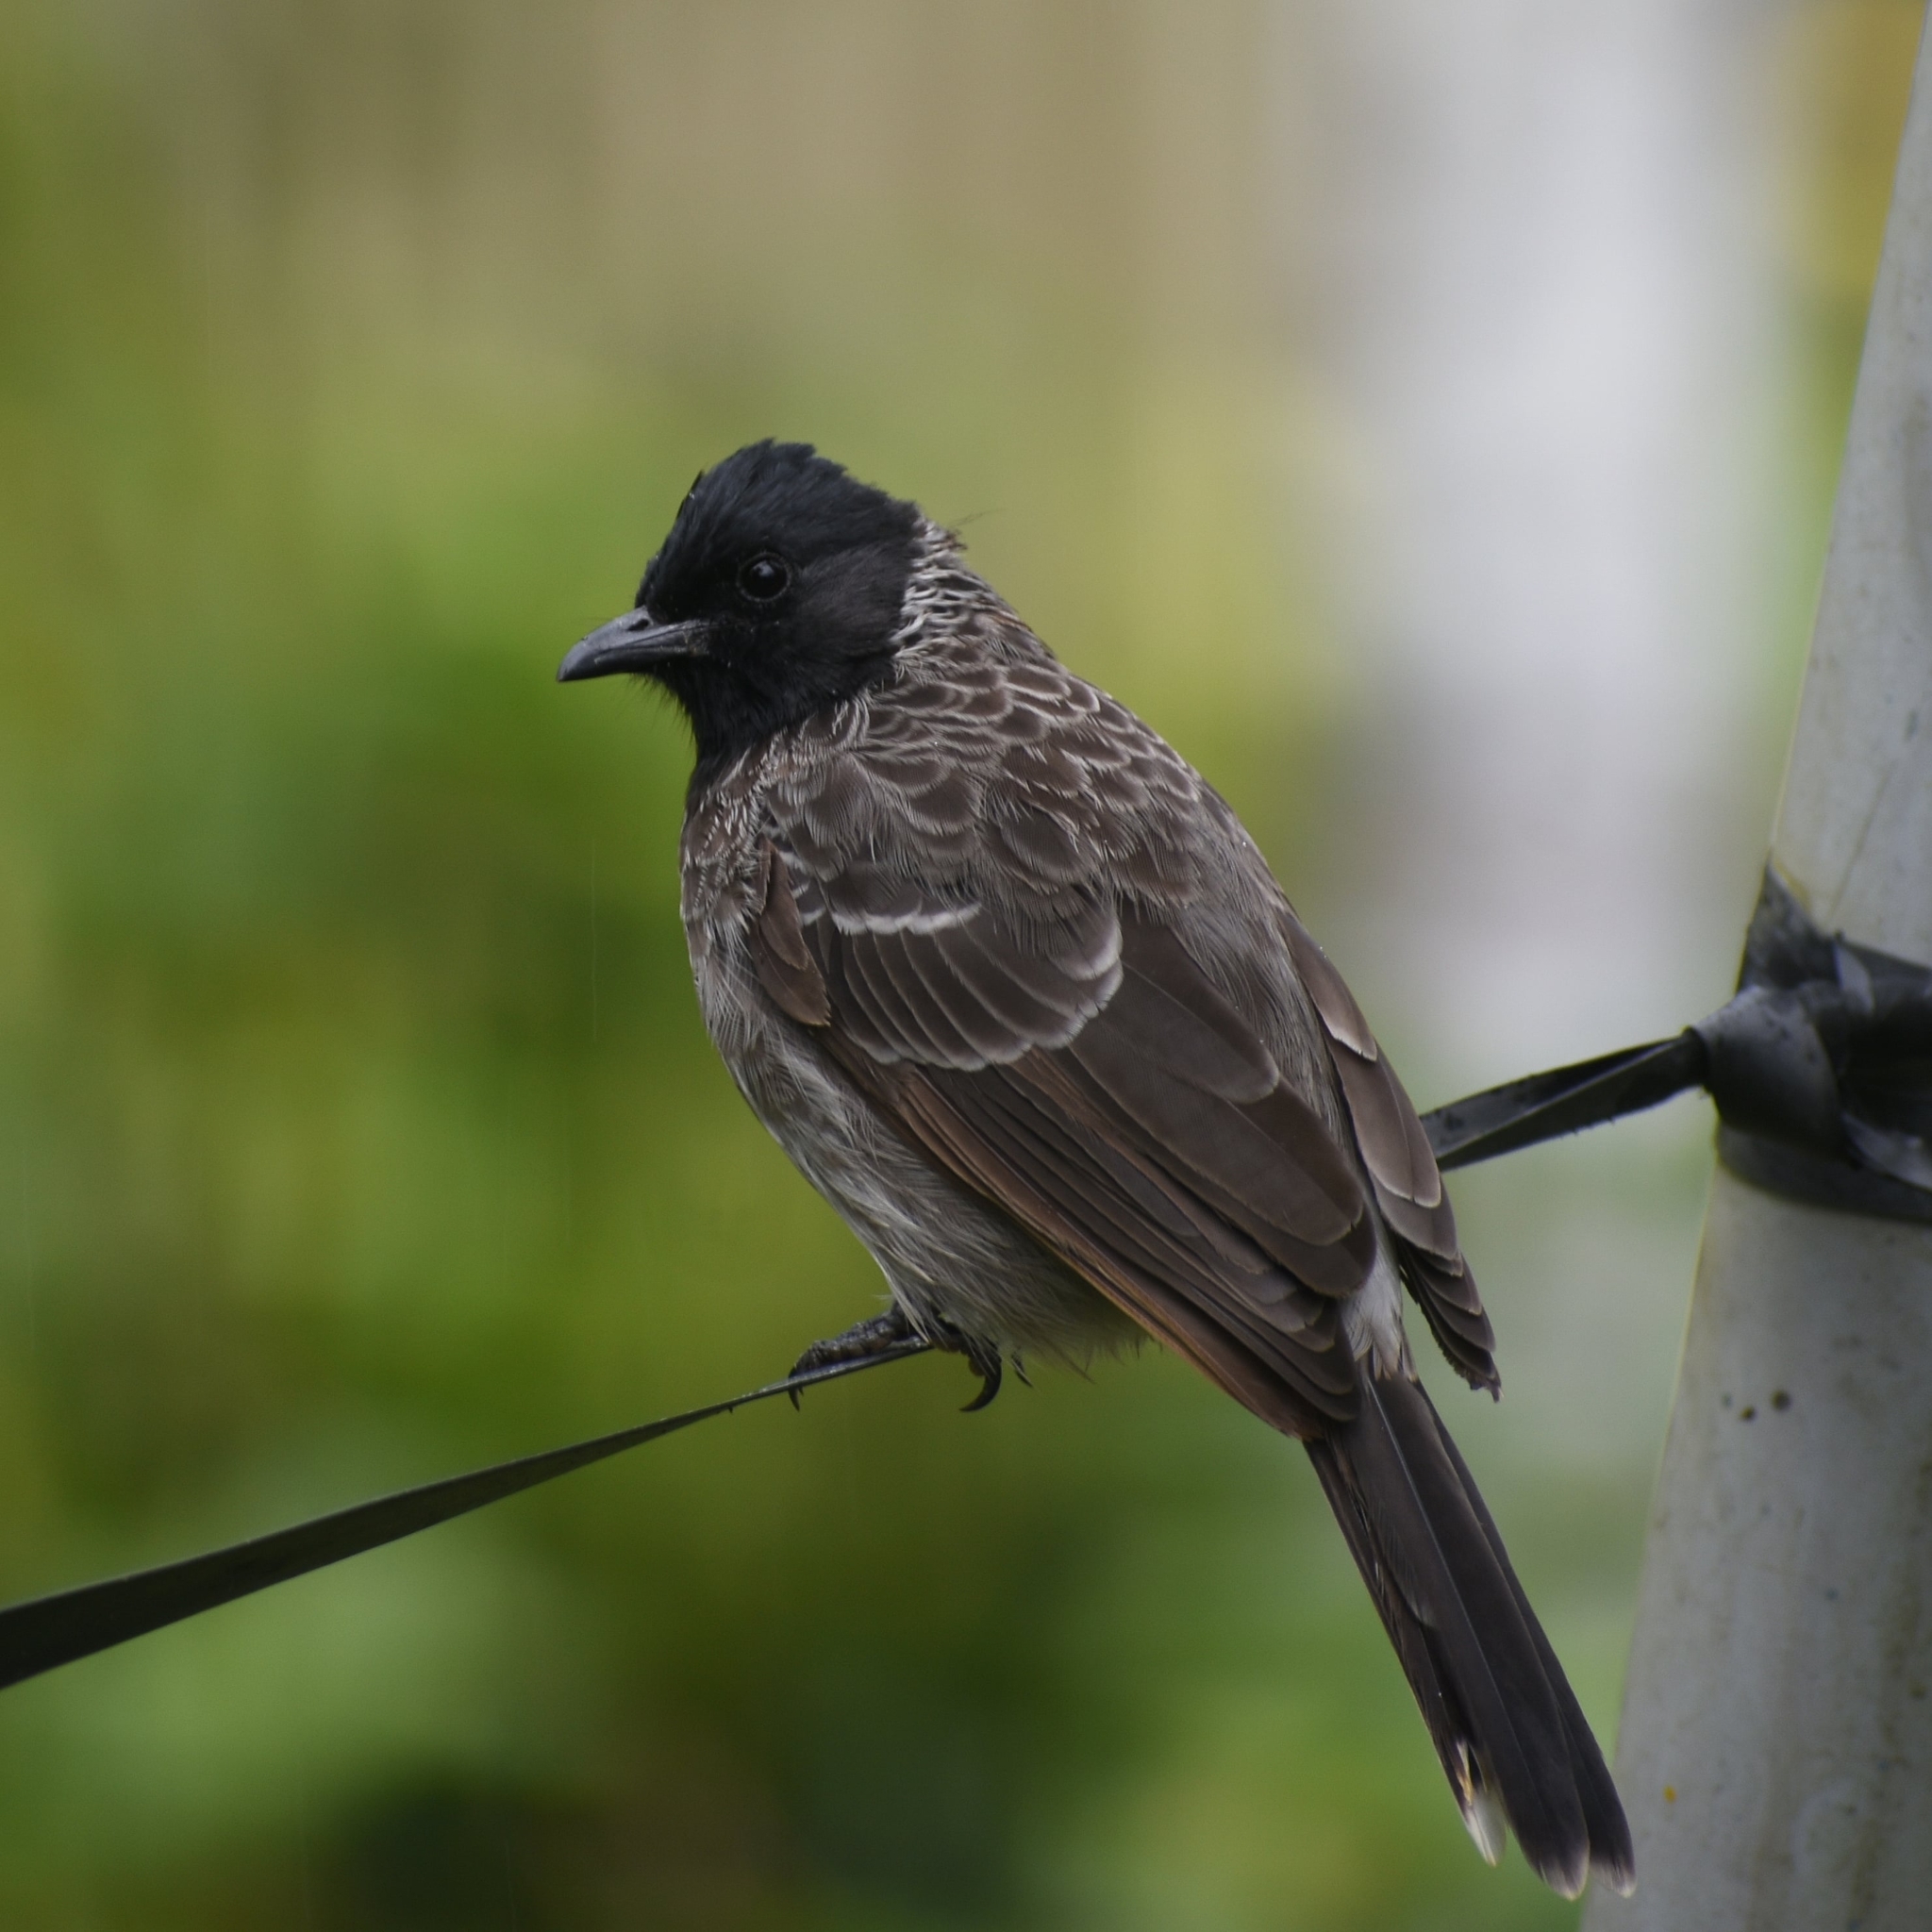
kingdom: Animalia
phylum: Chordata
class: Aves
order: Passeriformes
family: Pycnonotidae
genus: Pycnonotus
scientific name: Pycnonotus cafer
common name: Red-vented bulbul
